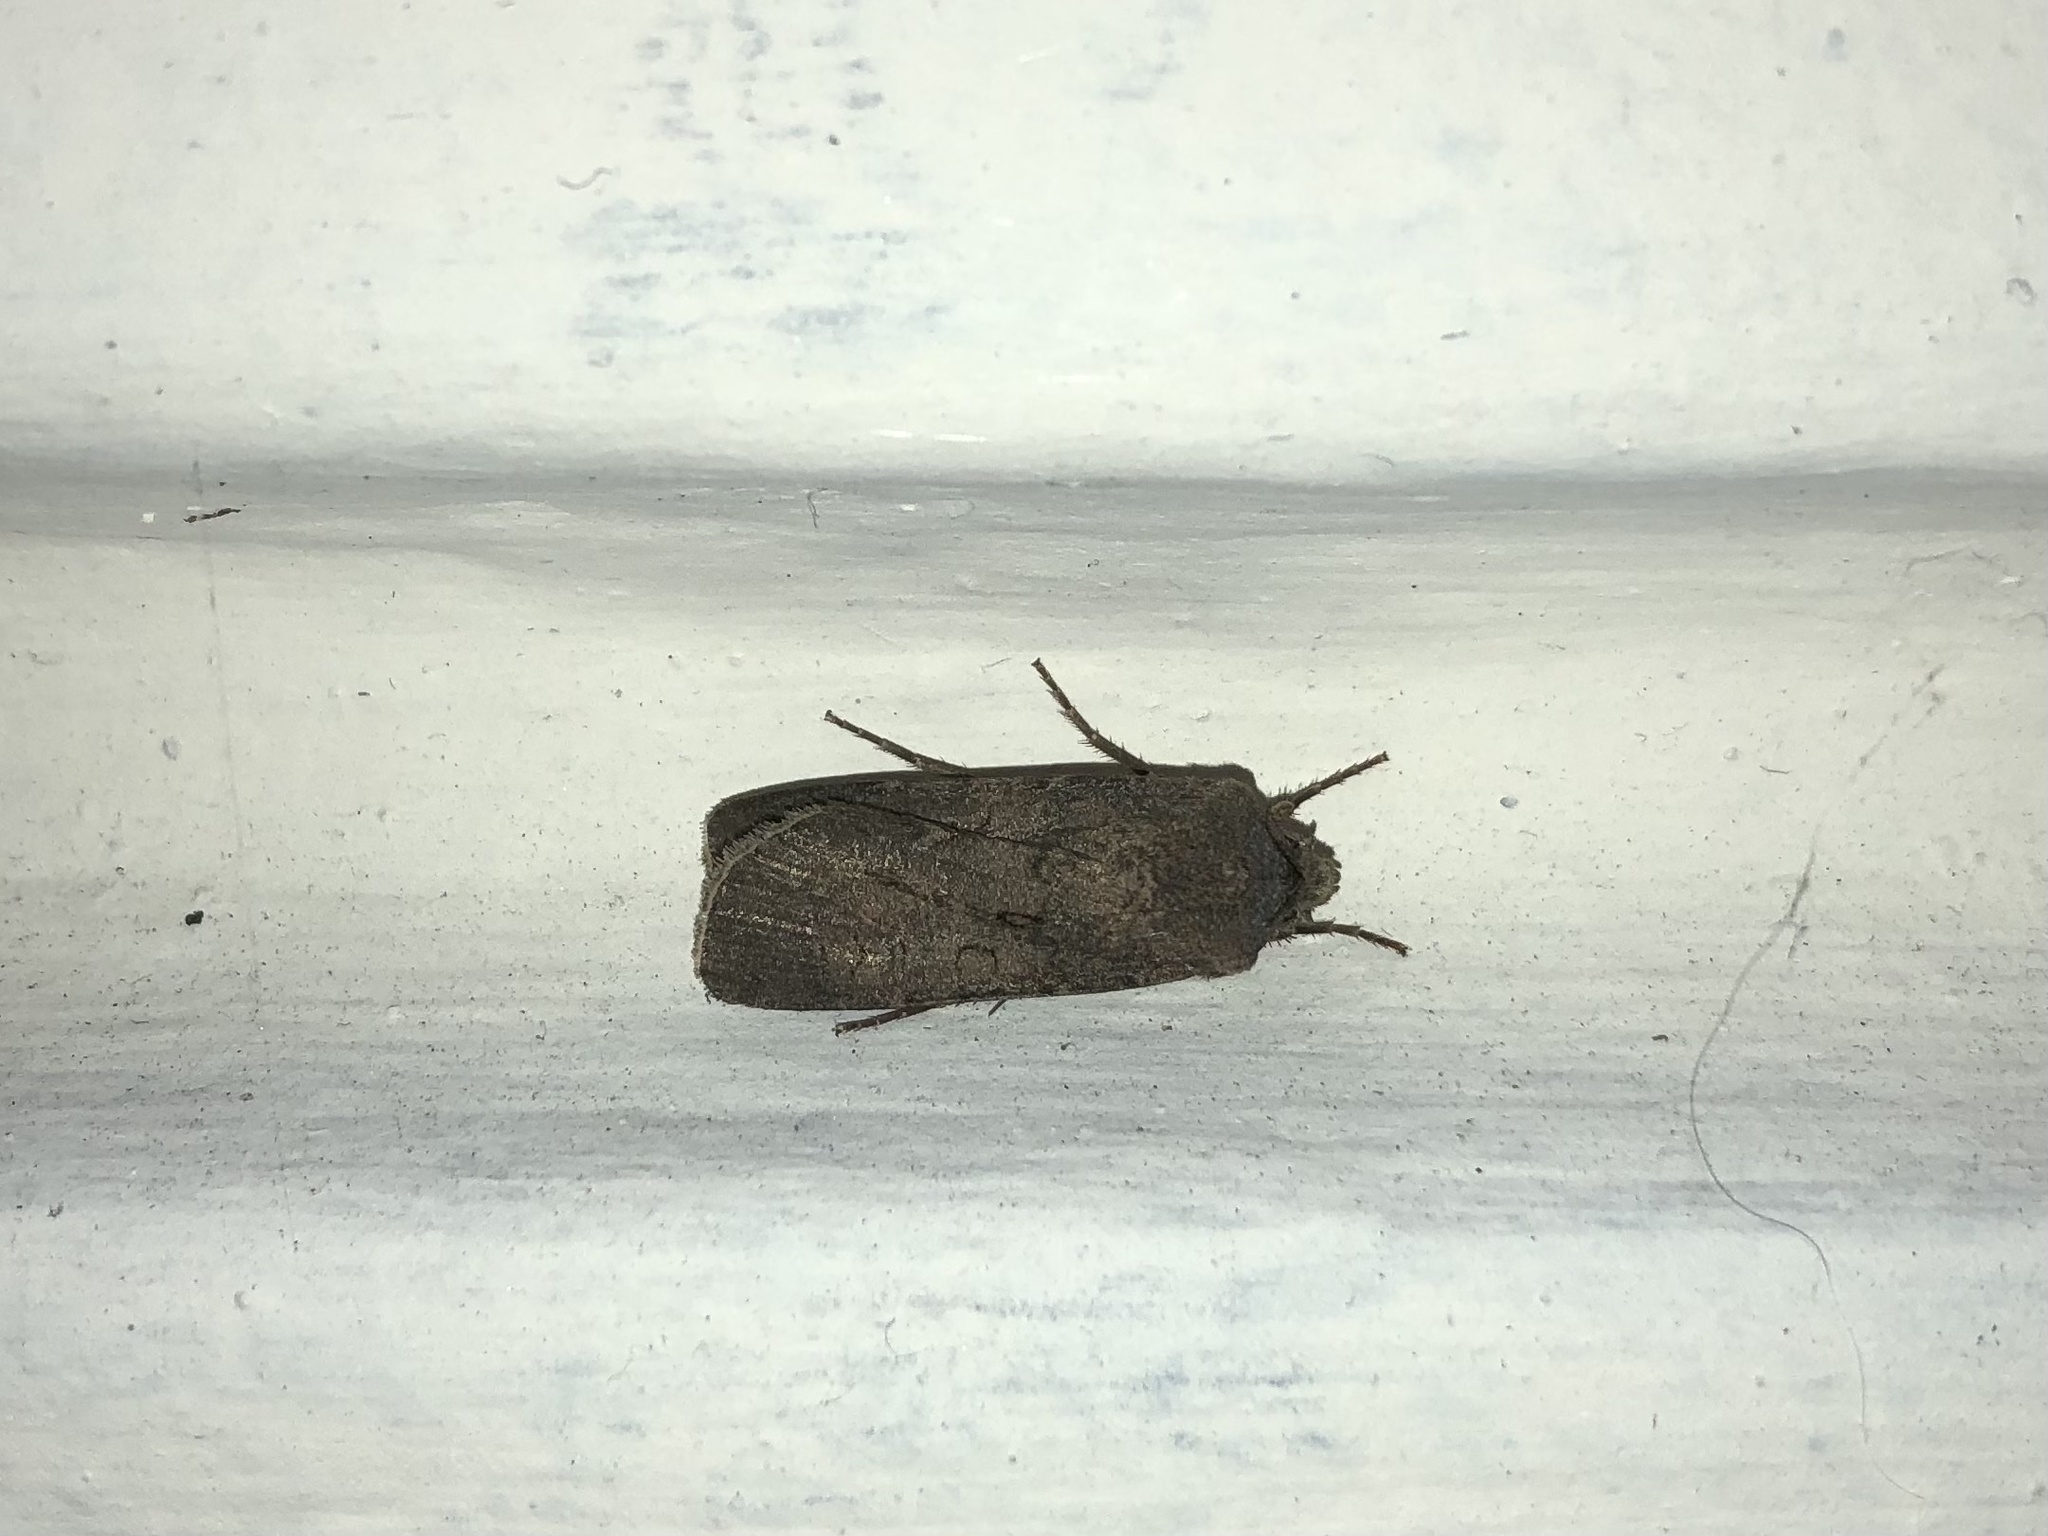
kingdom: Animalia
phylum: Arthropoda
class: Insecta
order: Lepidoptera
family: Noctuidae
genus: Agrotis
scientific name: Agrotis segetum
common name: Turnip moth
